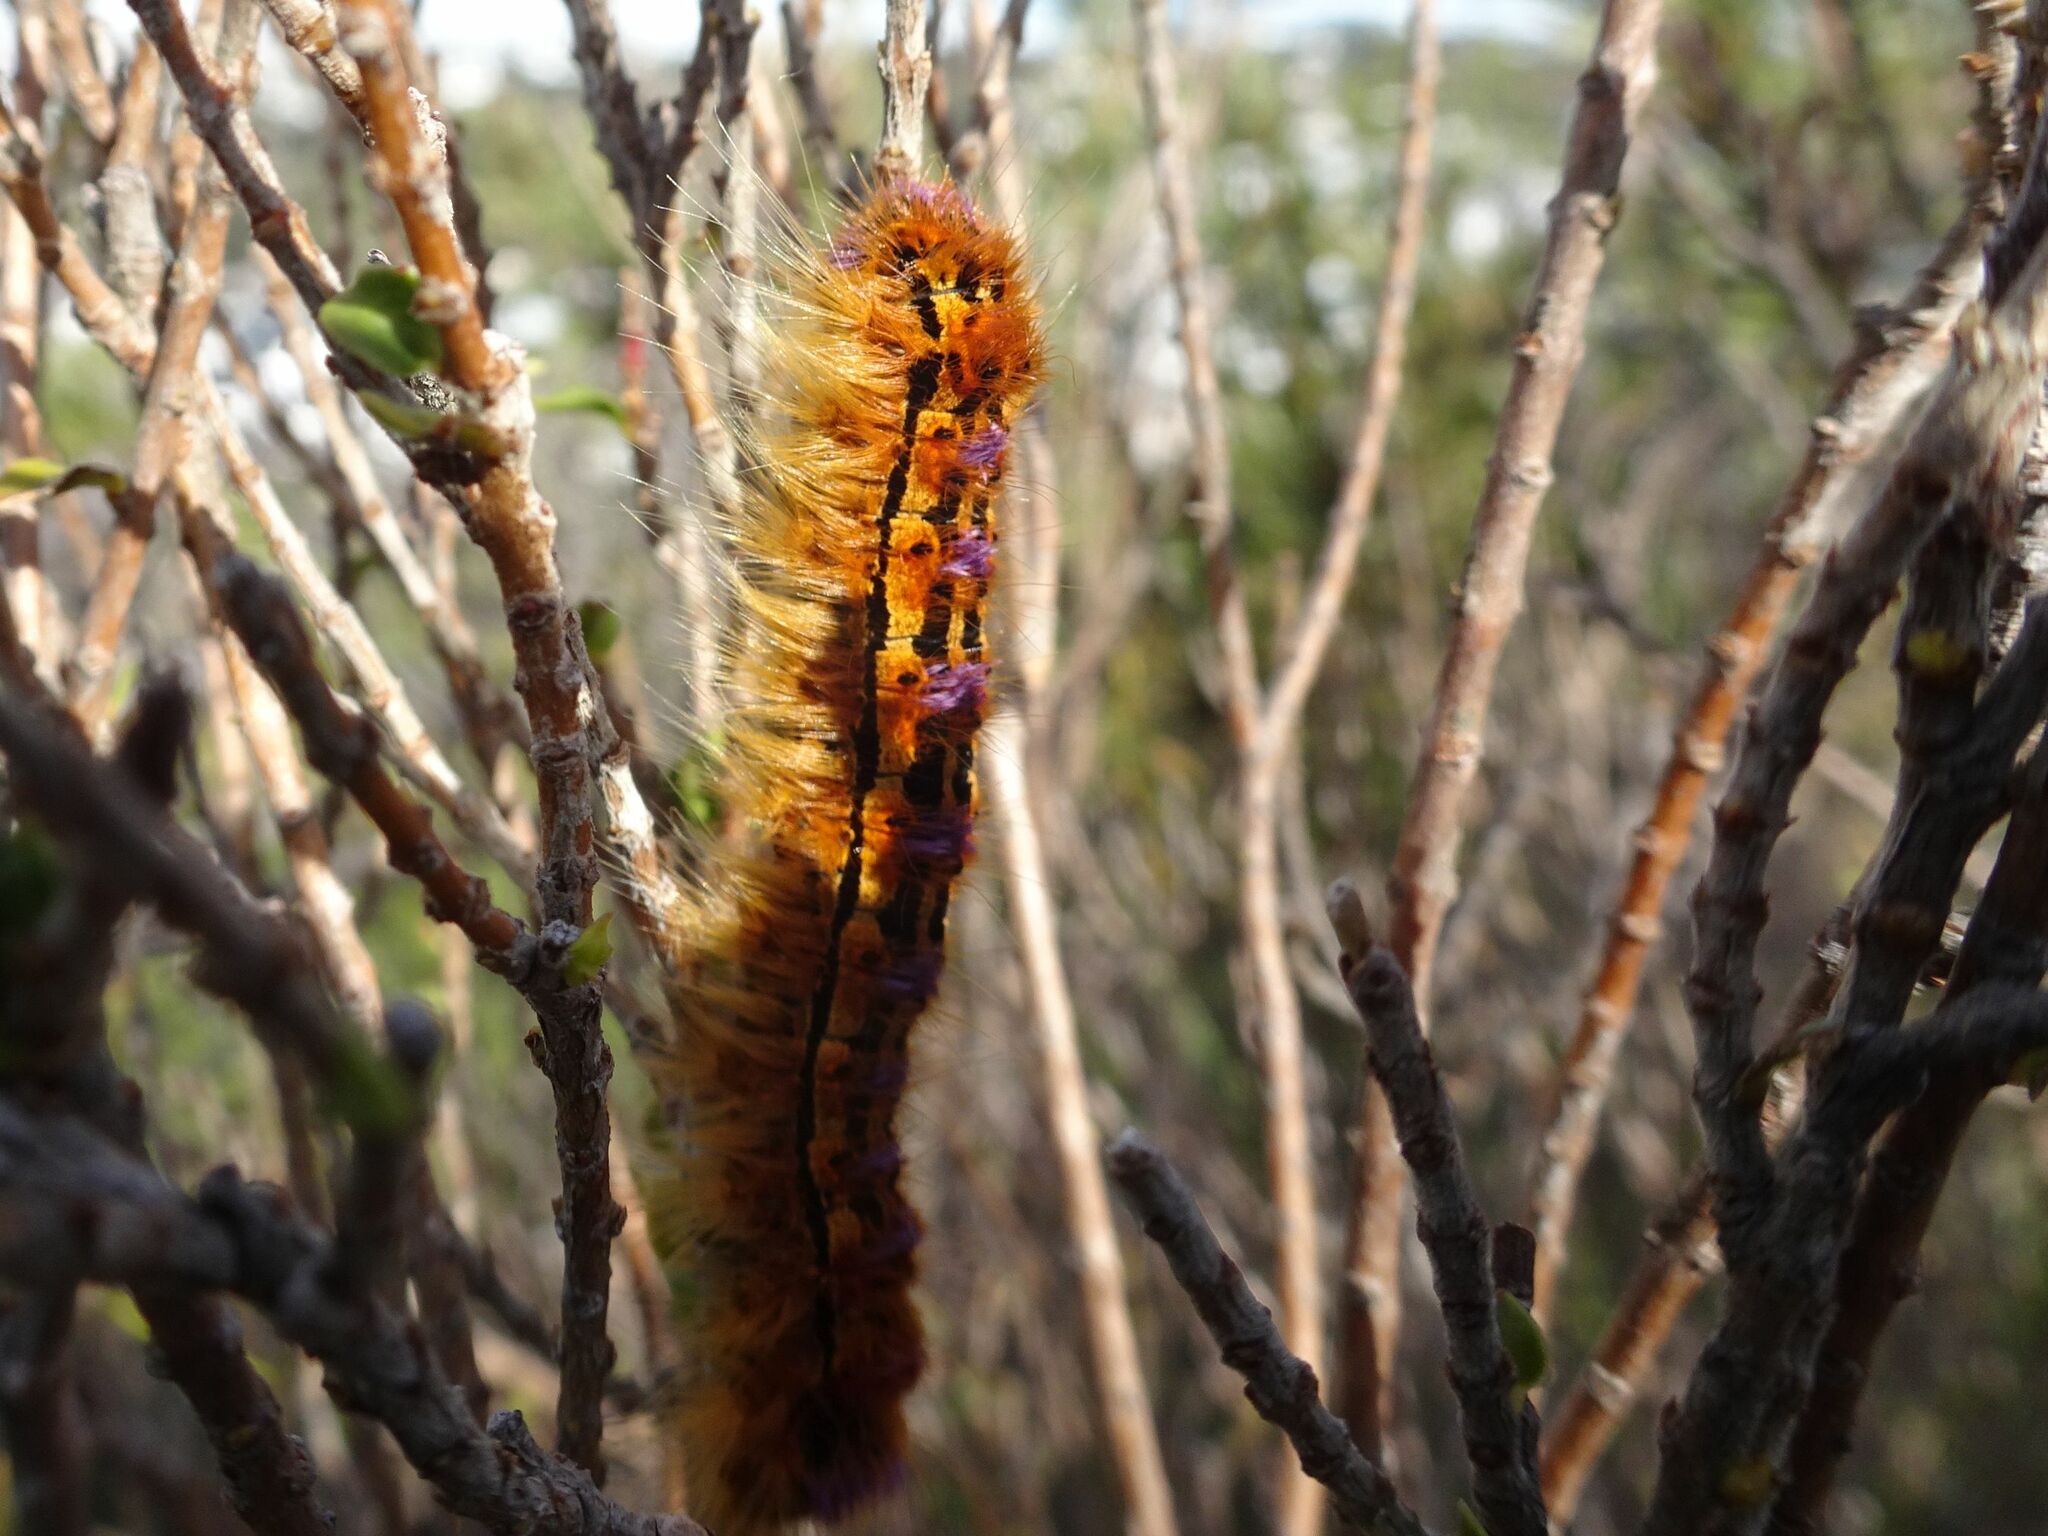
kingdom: Animalia
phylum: Arthropoda
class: Insecta
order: Lepidoptera
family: Lasiocampidae
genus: Eutricha
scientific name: Eutricha bifascia
